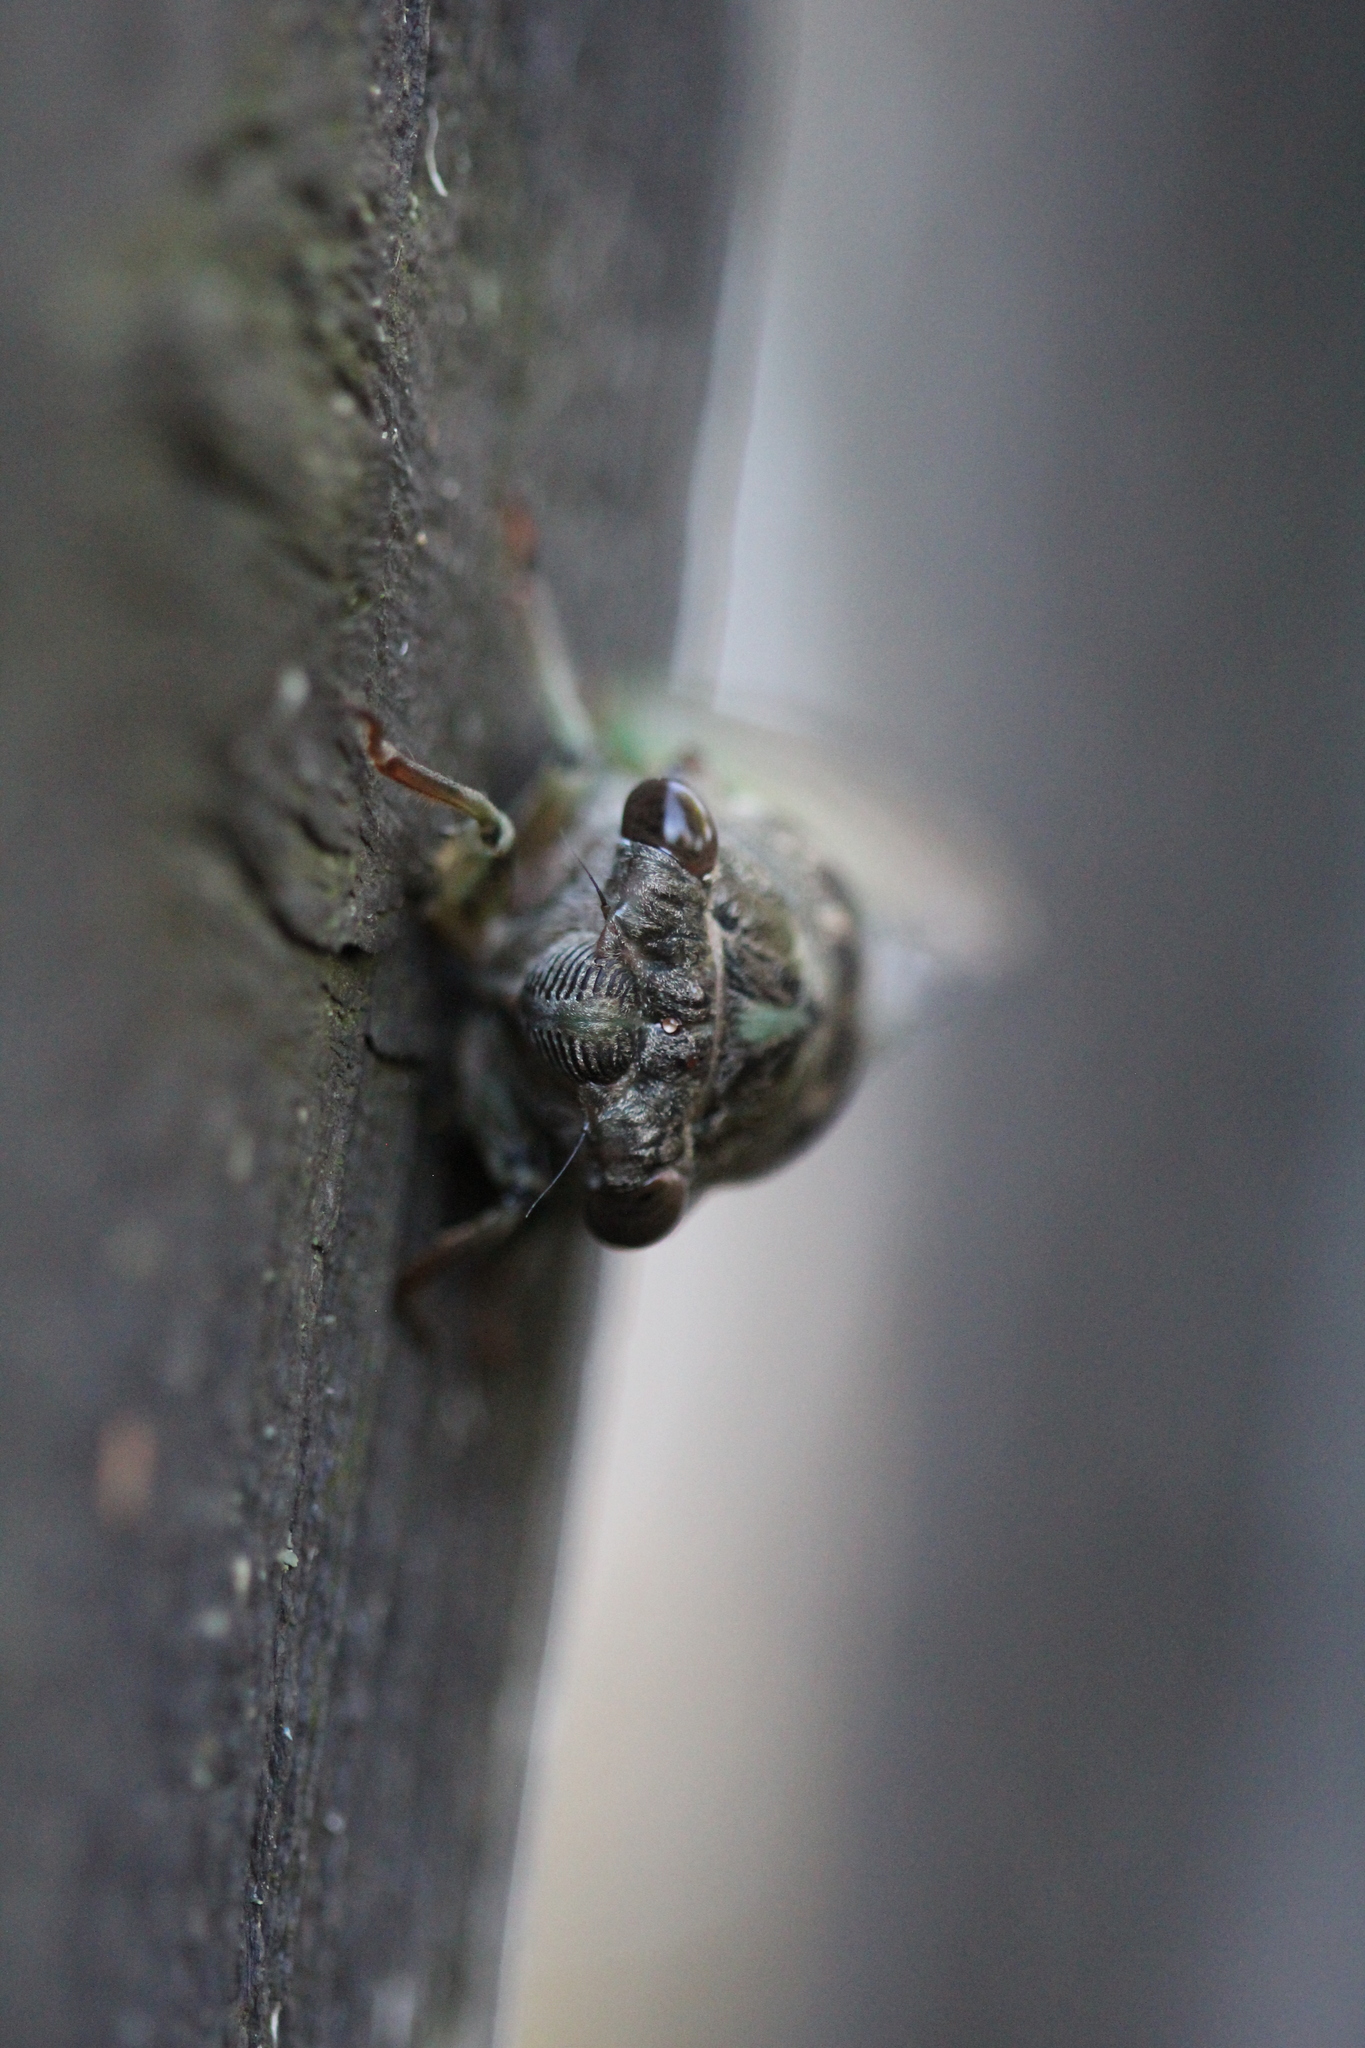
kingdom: Animalia
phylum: Arthropoda
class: Insecta
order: Hemiptera
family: Cicadidae
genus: Neotibicen
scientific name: Neotibicen canicularis
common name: God-day cicada
